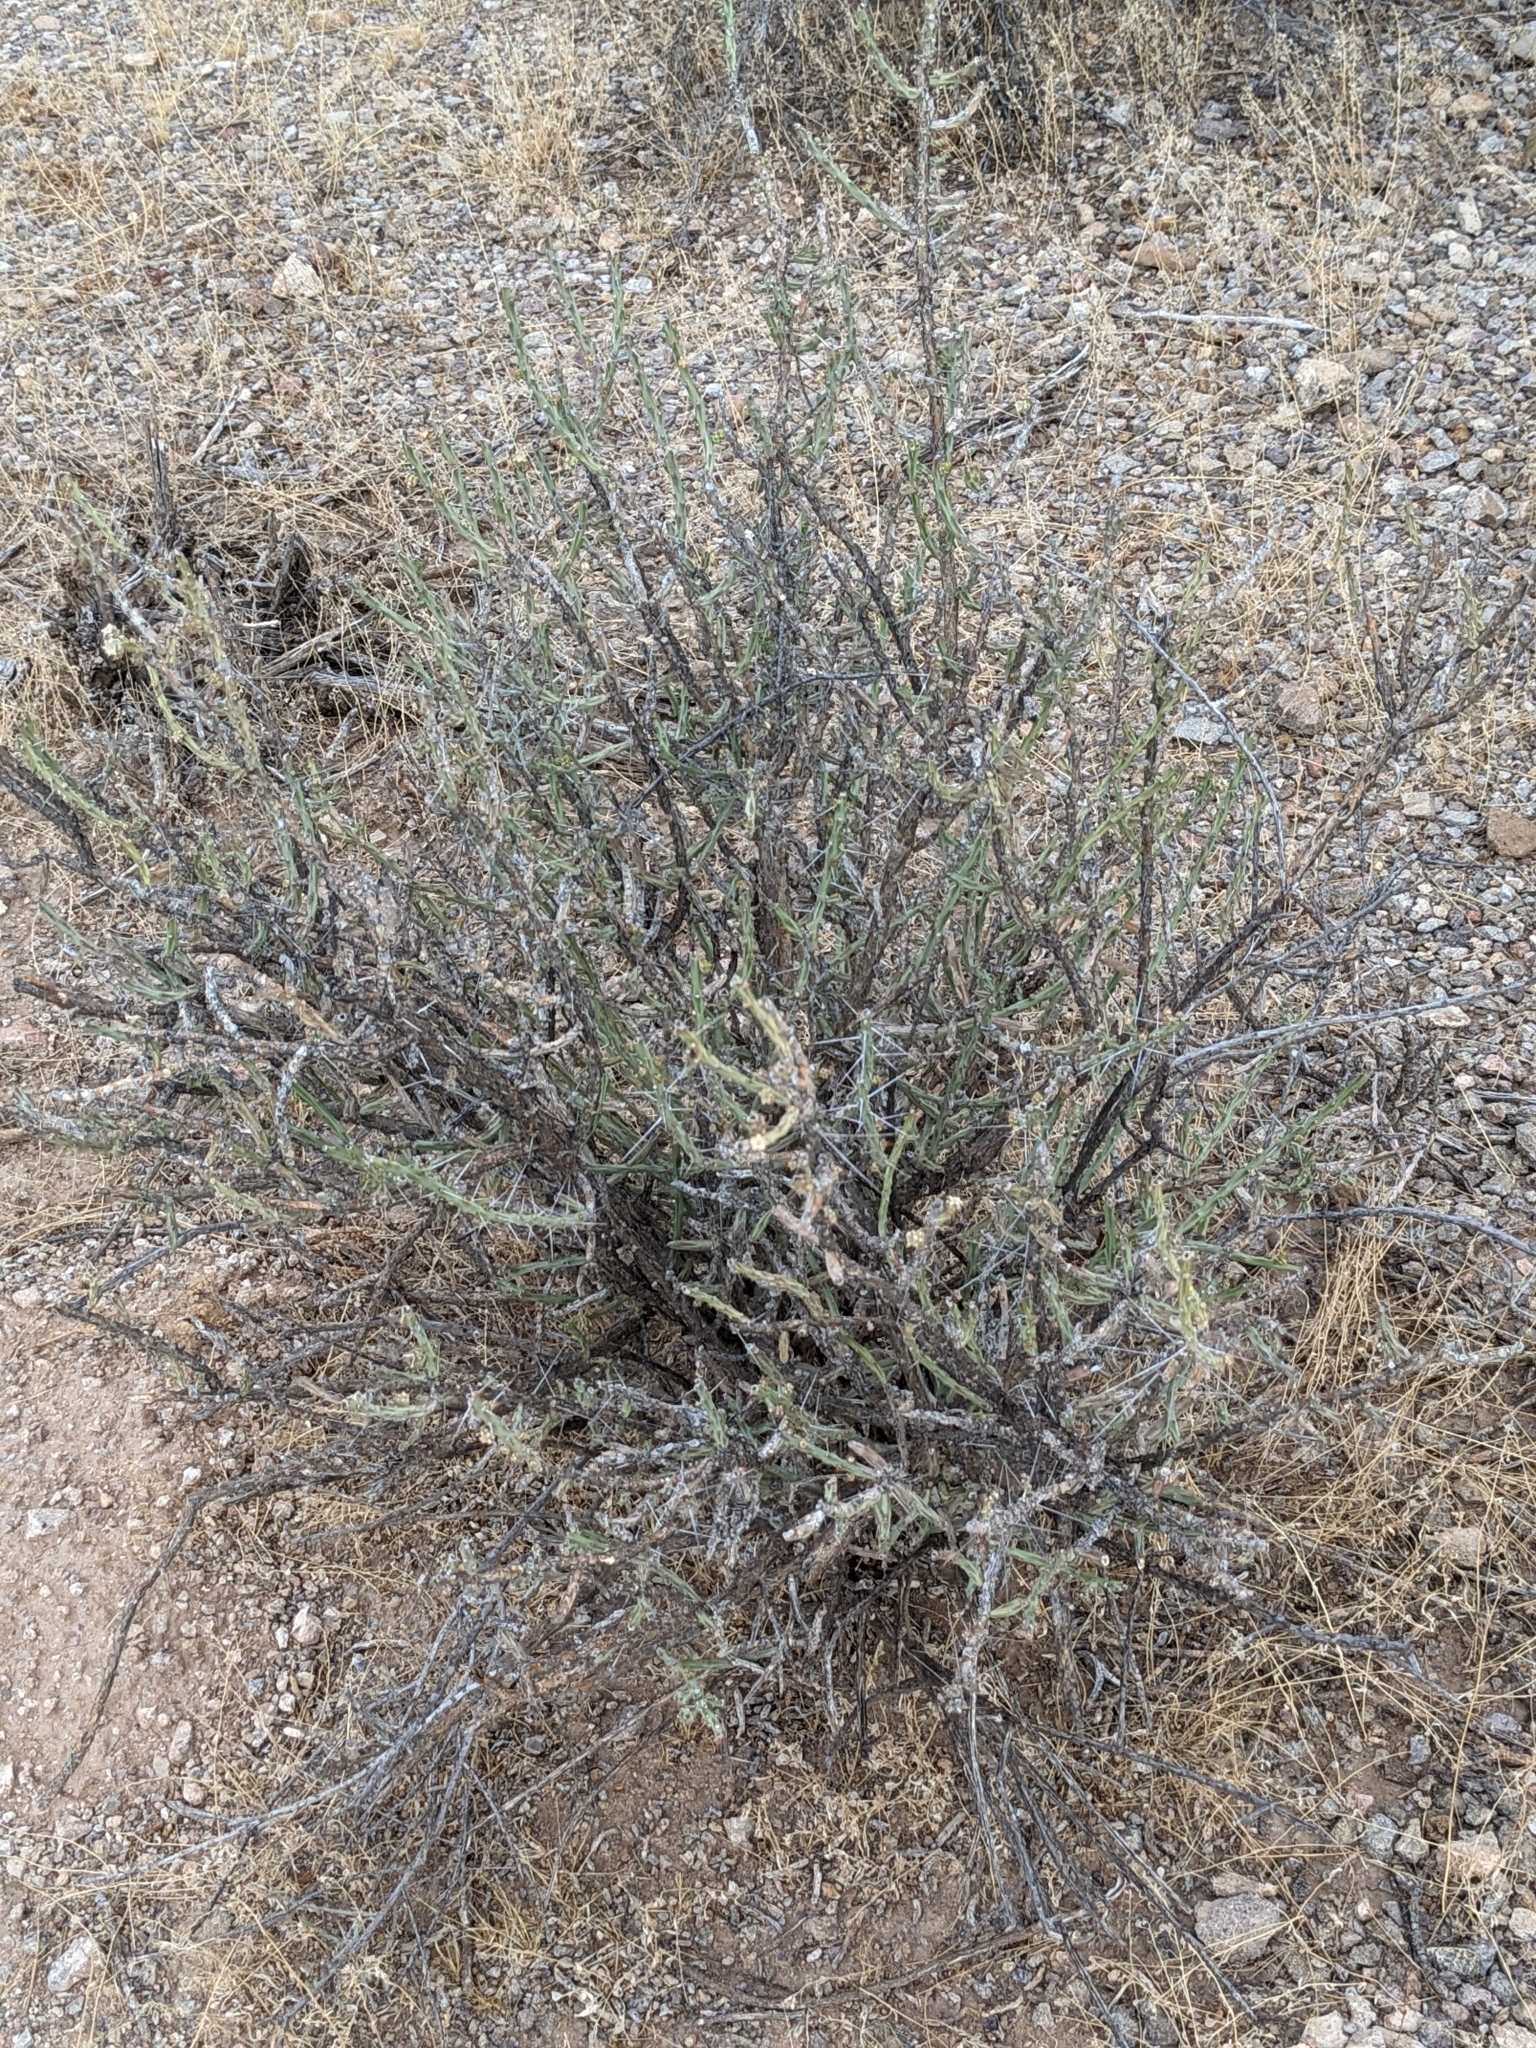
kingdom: Plantae
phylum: Tracheophyta
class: Magnoliopsida
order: Caryophyllales
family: Cactaceae
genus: Cylindropuntia
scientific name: Cylindropuntia leptocaulis
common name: Christmas cactus
